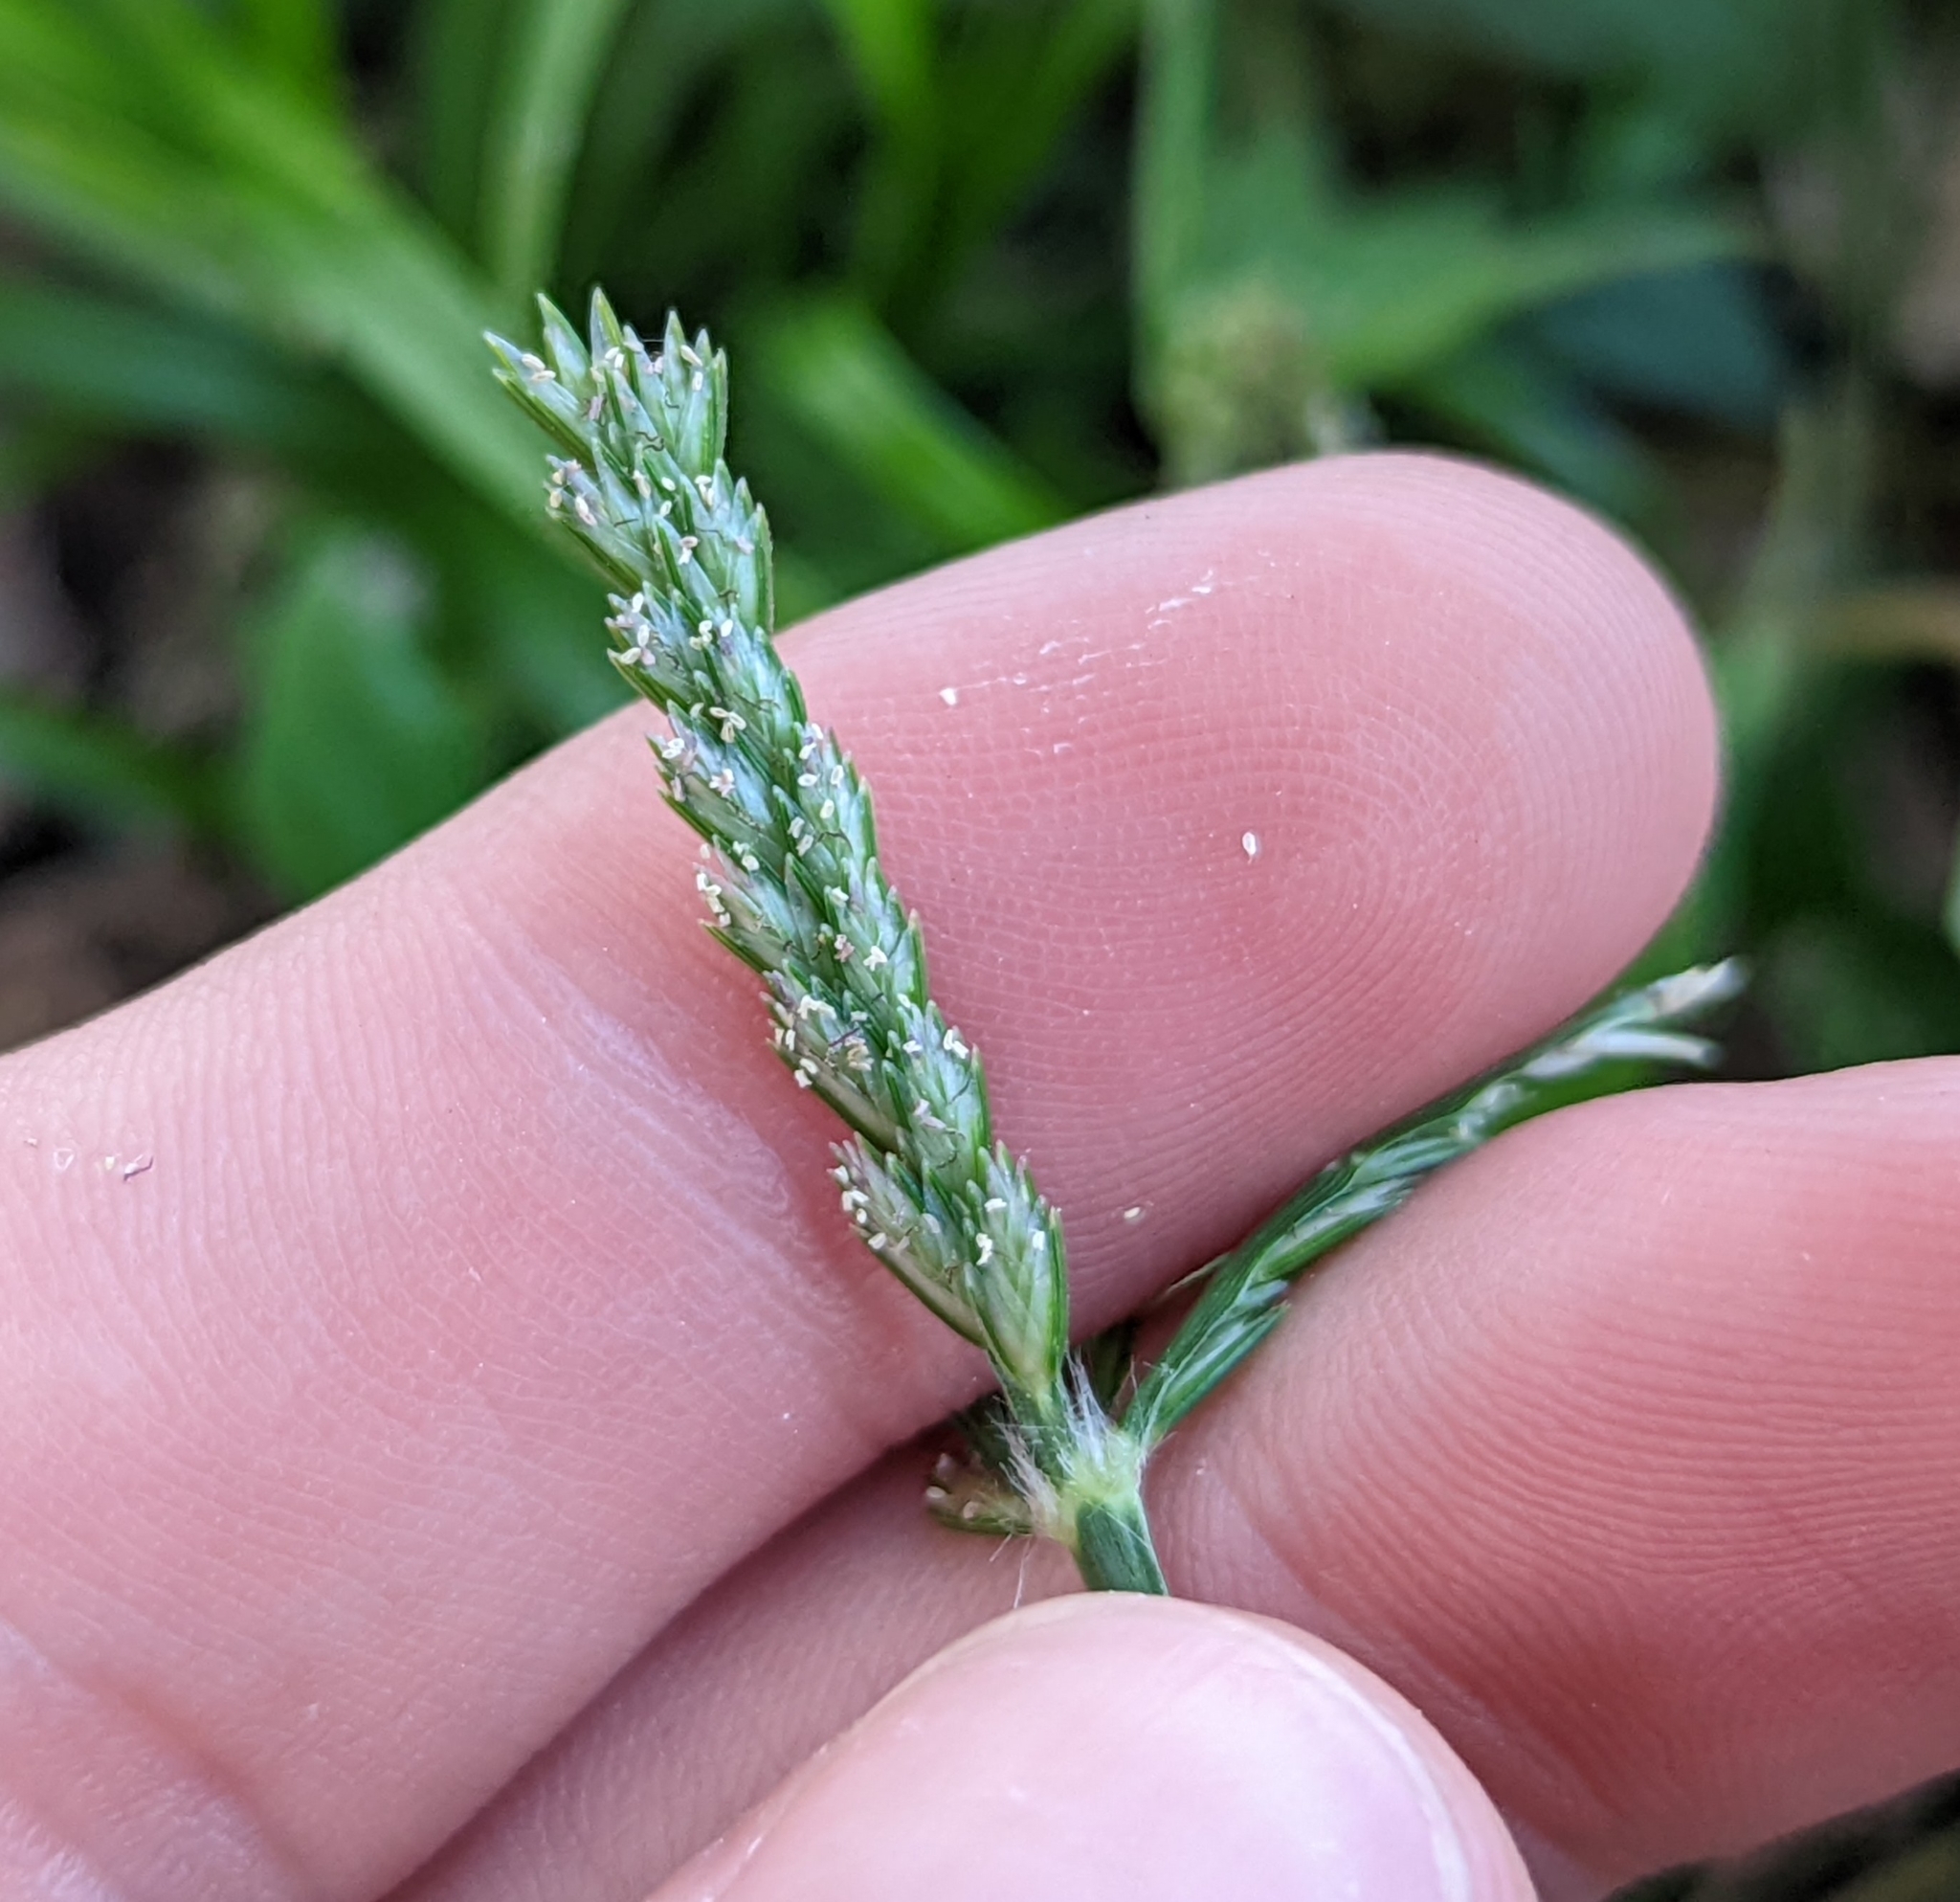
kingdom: Plantae
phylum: Tracheophyta
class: Liliopsida
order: Poales
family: Poaceae
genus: Eleusine
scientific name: Eleusine indica
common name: Yard-grass
